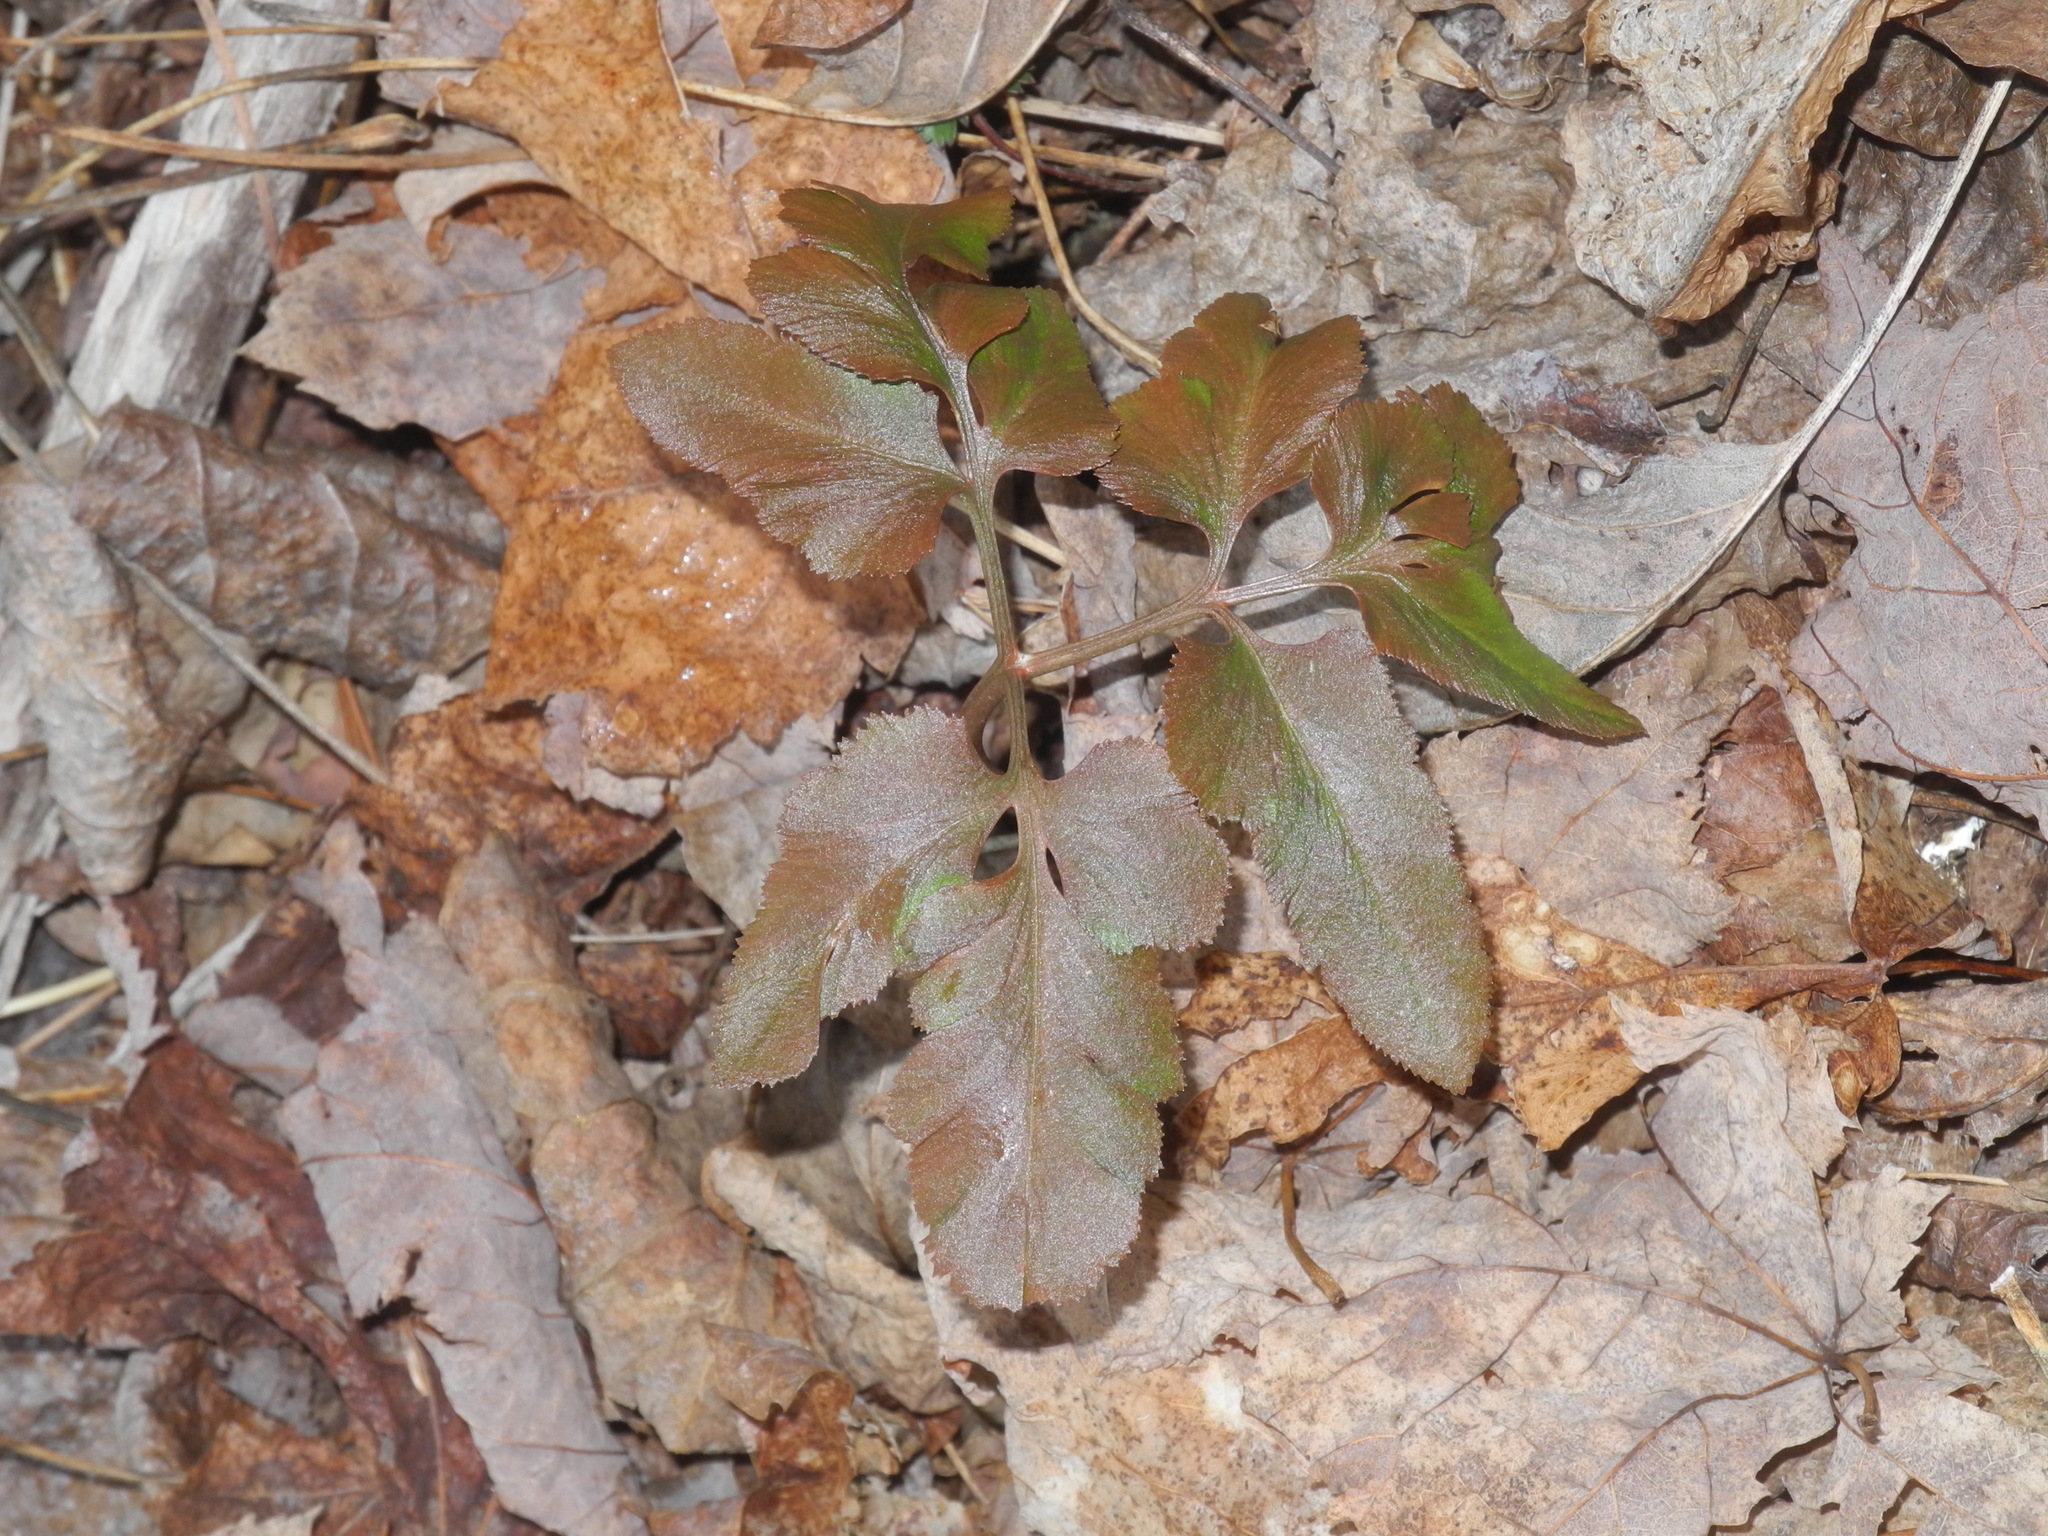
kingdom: Plantae
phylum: Tracheophyta
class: Polypodiopsida
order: Ophioglossales
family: Ophioglossaceae
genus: Sceptridium
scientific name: Sceptridium biternatum
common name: Sparse-lobed grapefern
